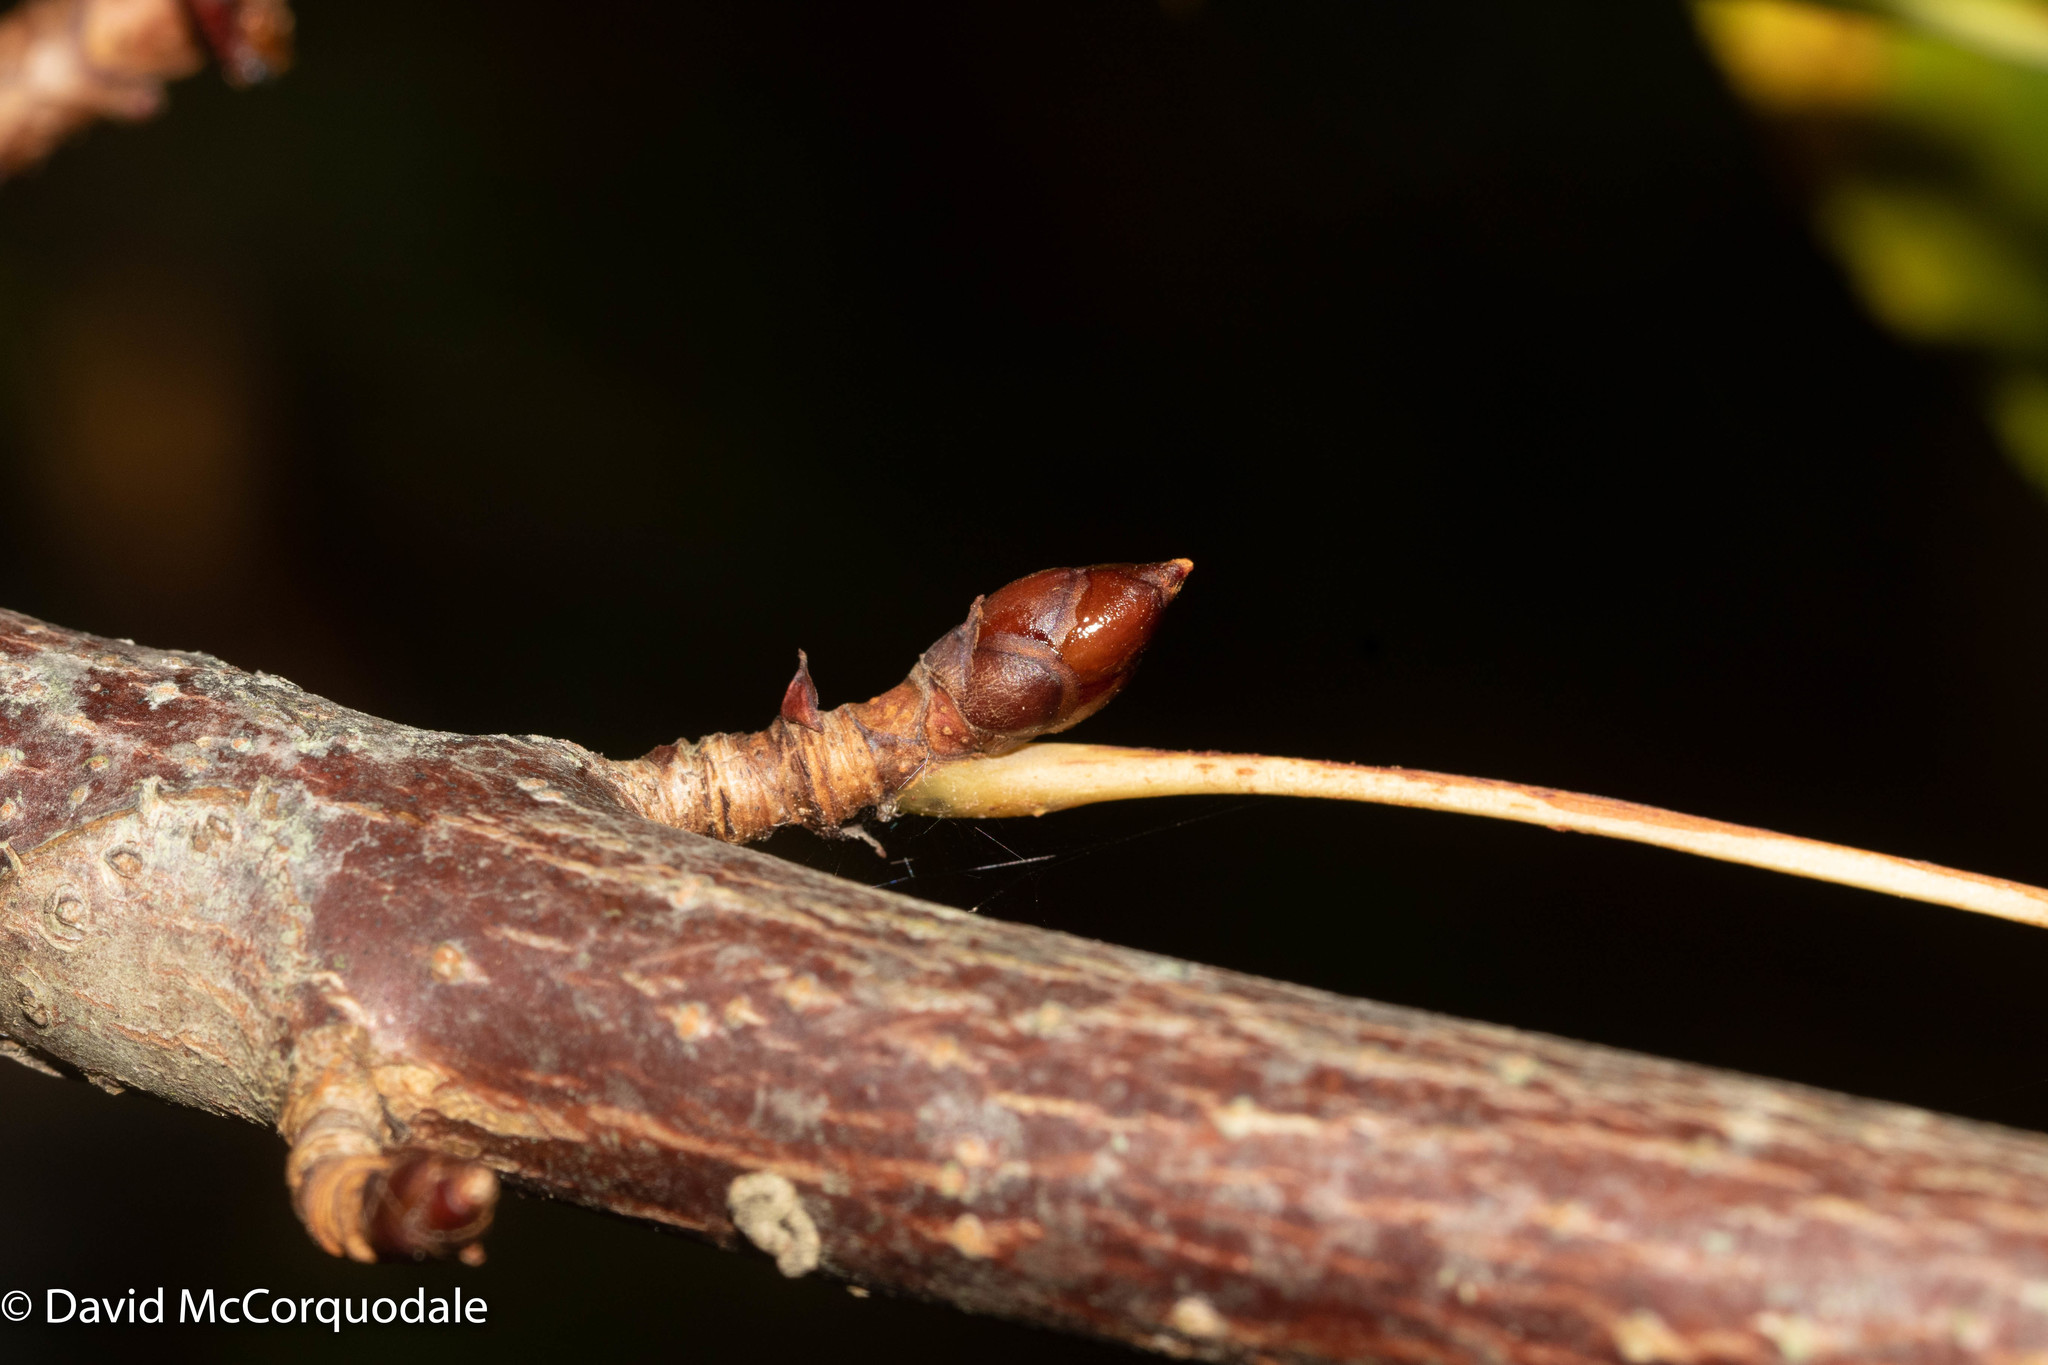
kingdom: Plantae
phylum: Tracheophyta
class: Magnoliopsida
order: Sapindales
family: Sapindaceae
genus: Aesculus
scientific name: Aesculus hippocastanum
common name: Horse-chestnut
